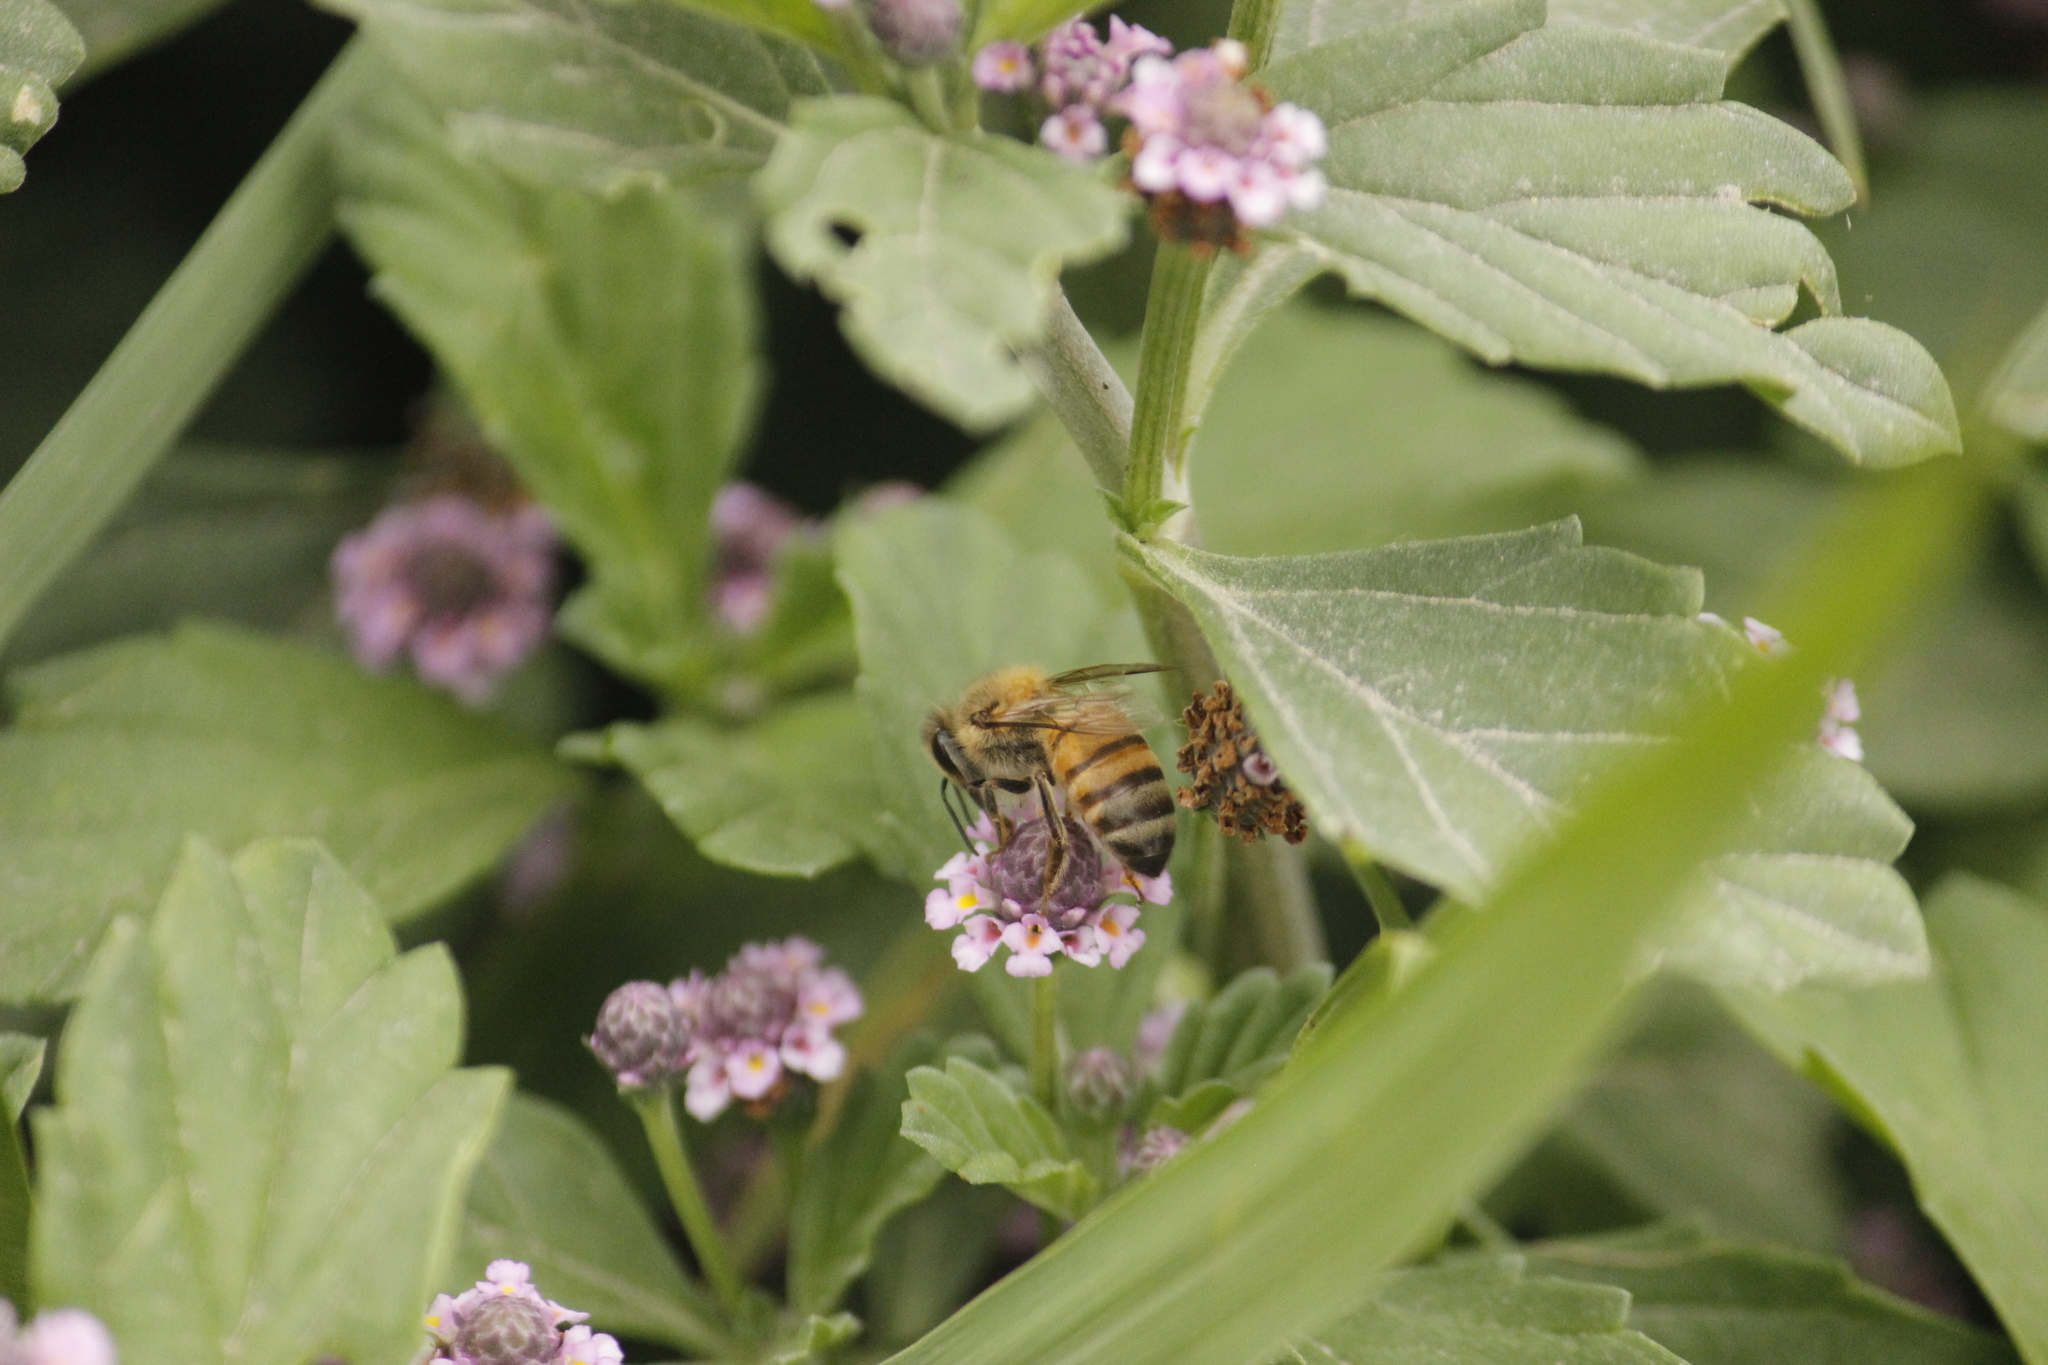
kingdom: Animalia
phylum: Arthropoda
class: Insecta
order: Hymenoptera
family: Apidae
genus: Apis
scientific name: Apis mellifera
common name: Honey bee
